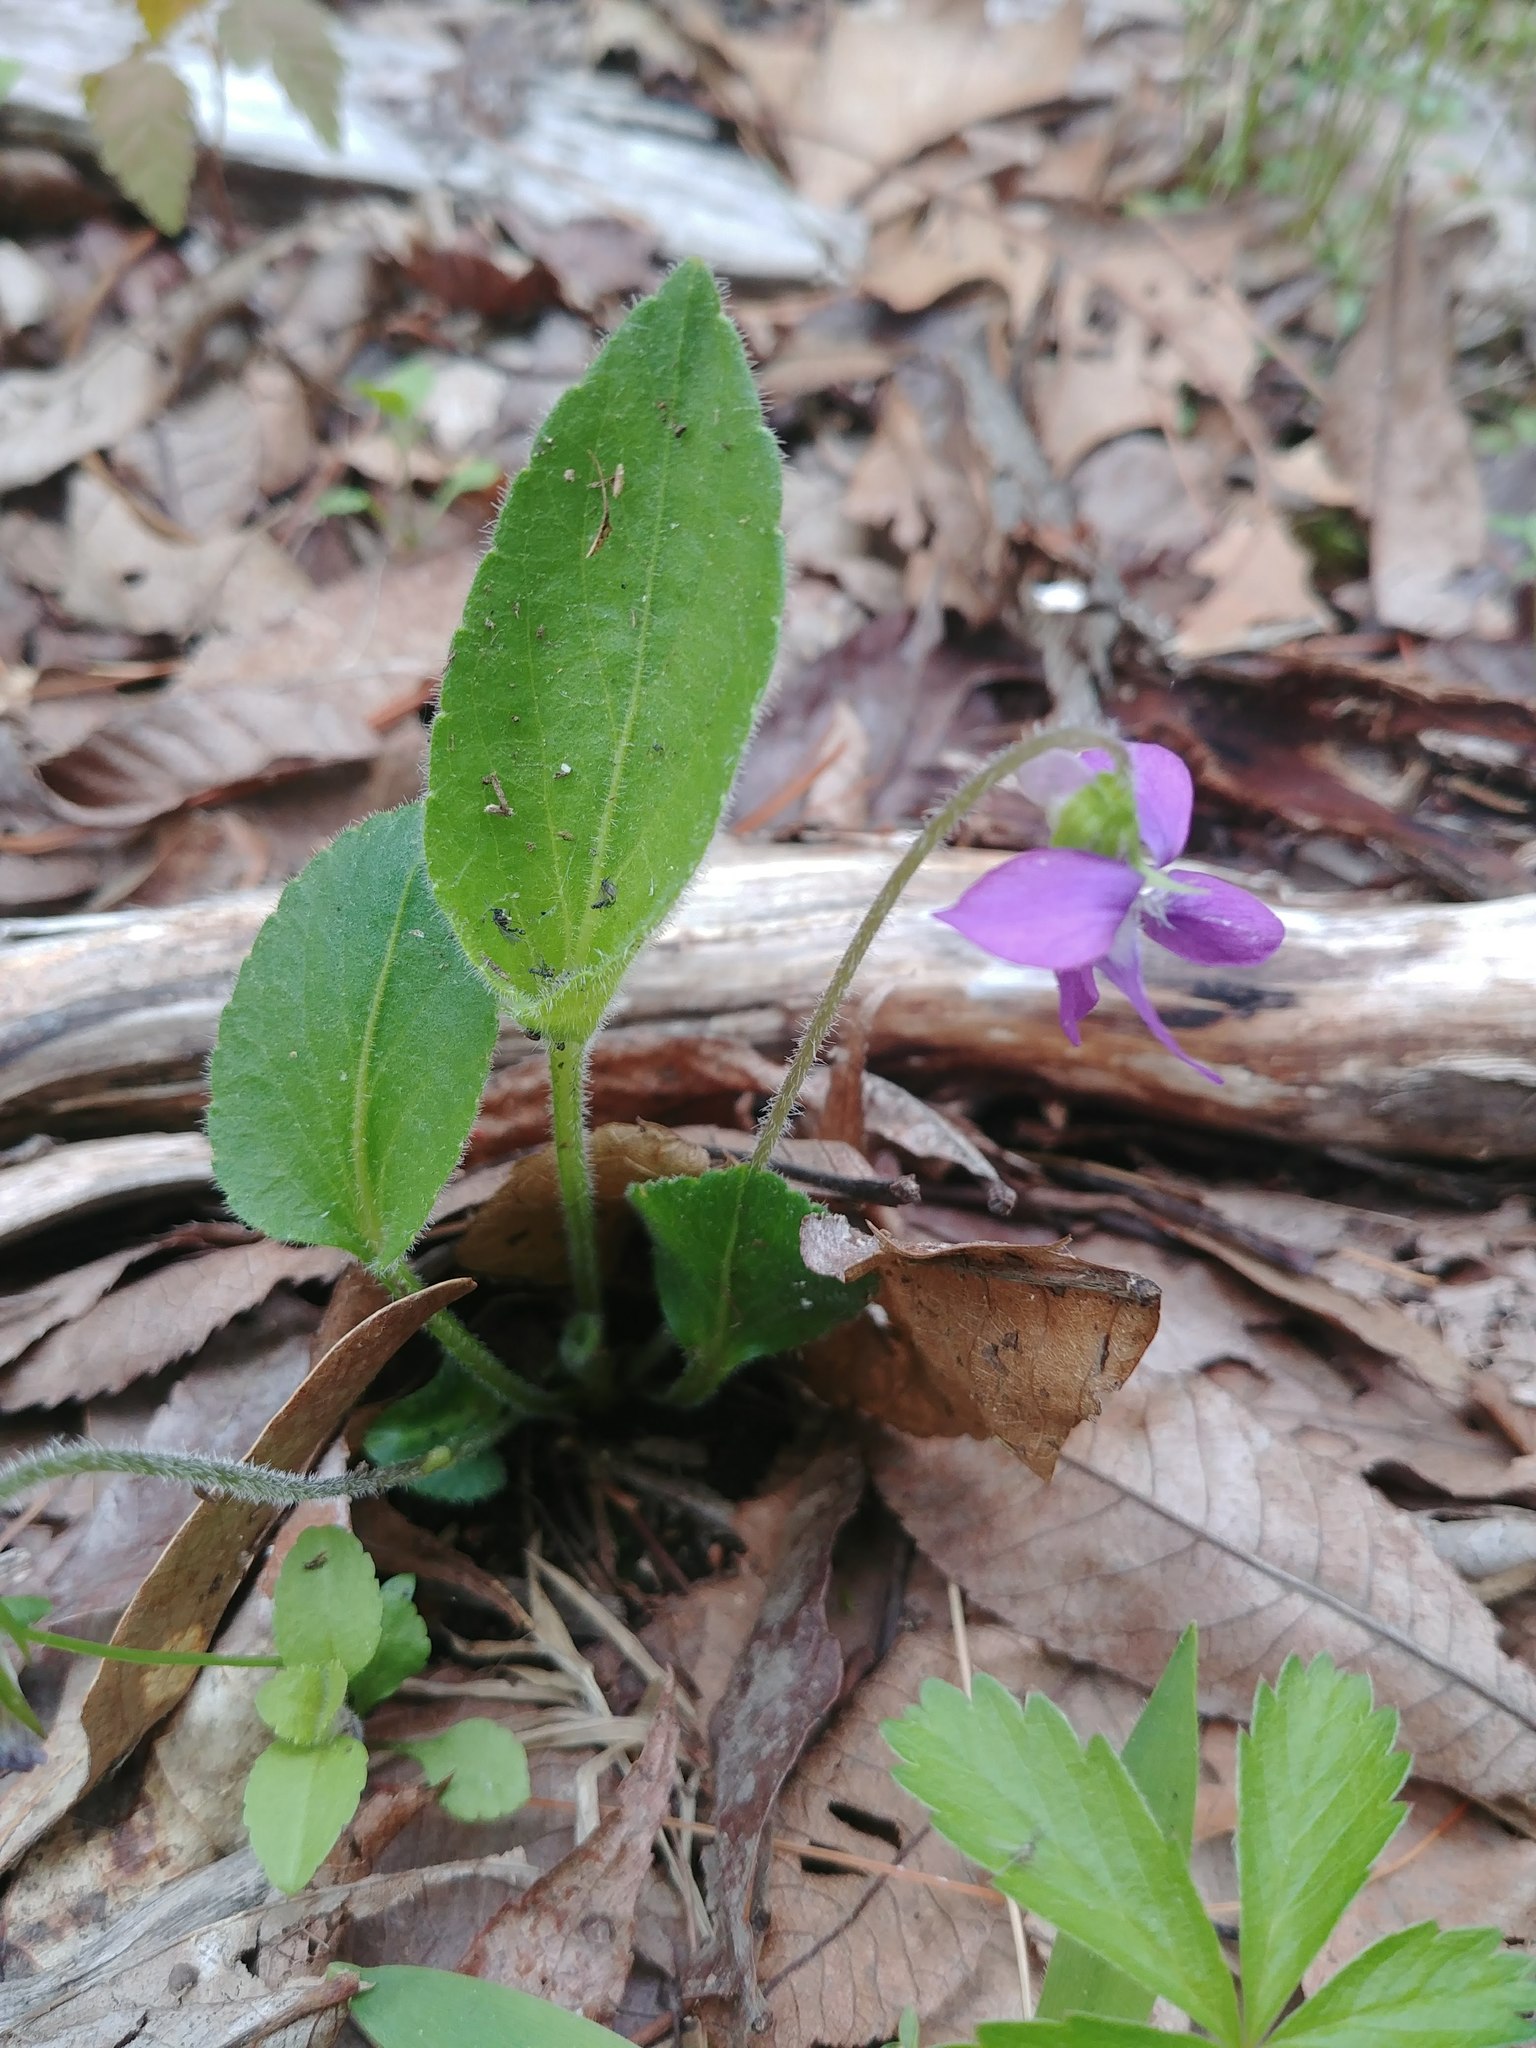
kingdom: Plantae
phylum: Tracheophyta
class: Magnoliopsida
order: Malpighiales
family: Violaceae
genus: Viola
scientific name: Viola fimbriatula
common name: Sand violet
